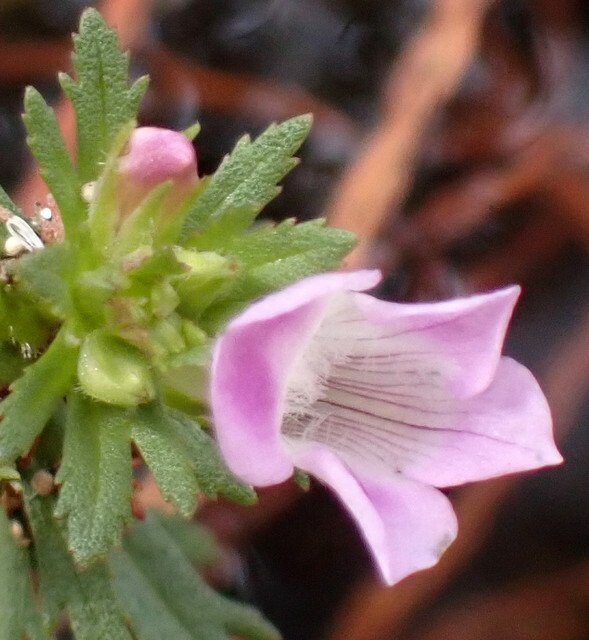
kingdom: Plantae
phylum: Tracheophyta
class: Magnoliopsida
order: Lamiales
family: Plantaginaceae
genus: Limnophila
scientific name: Limnophila sessiliflora
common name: Asian marshweed
